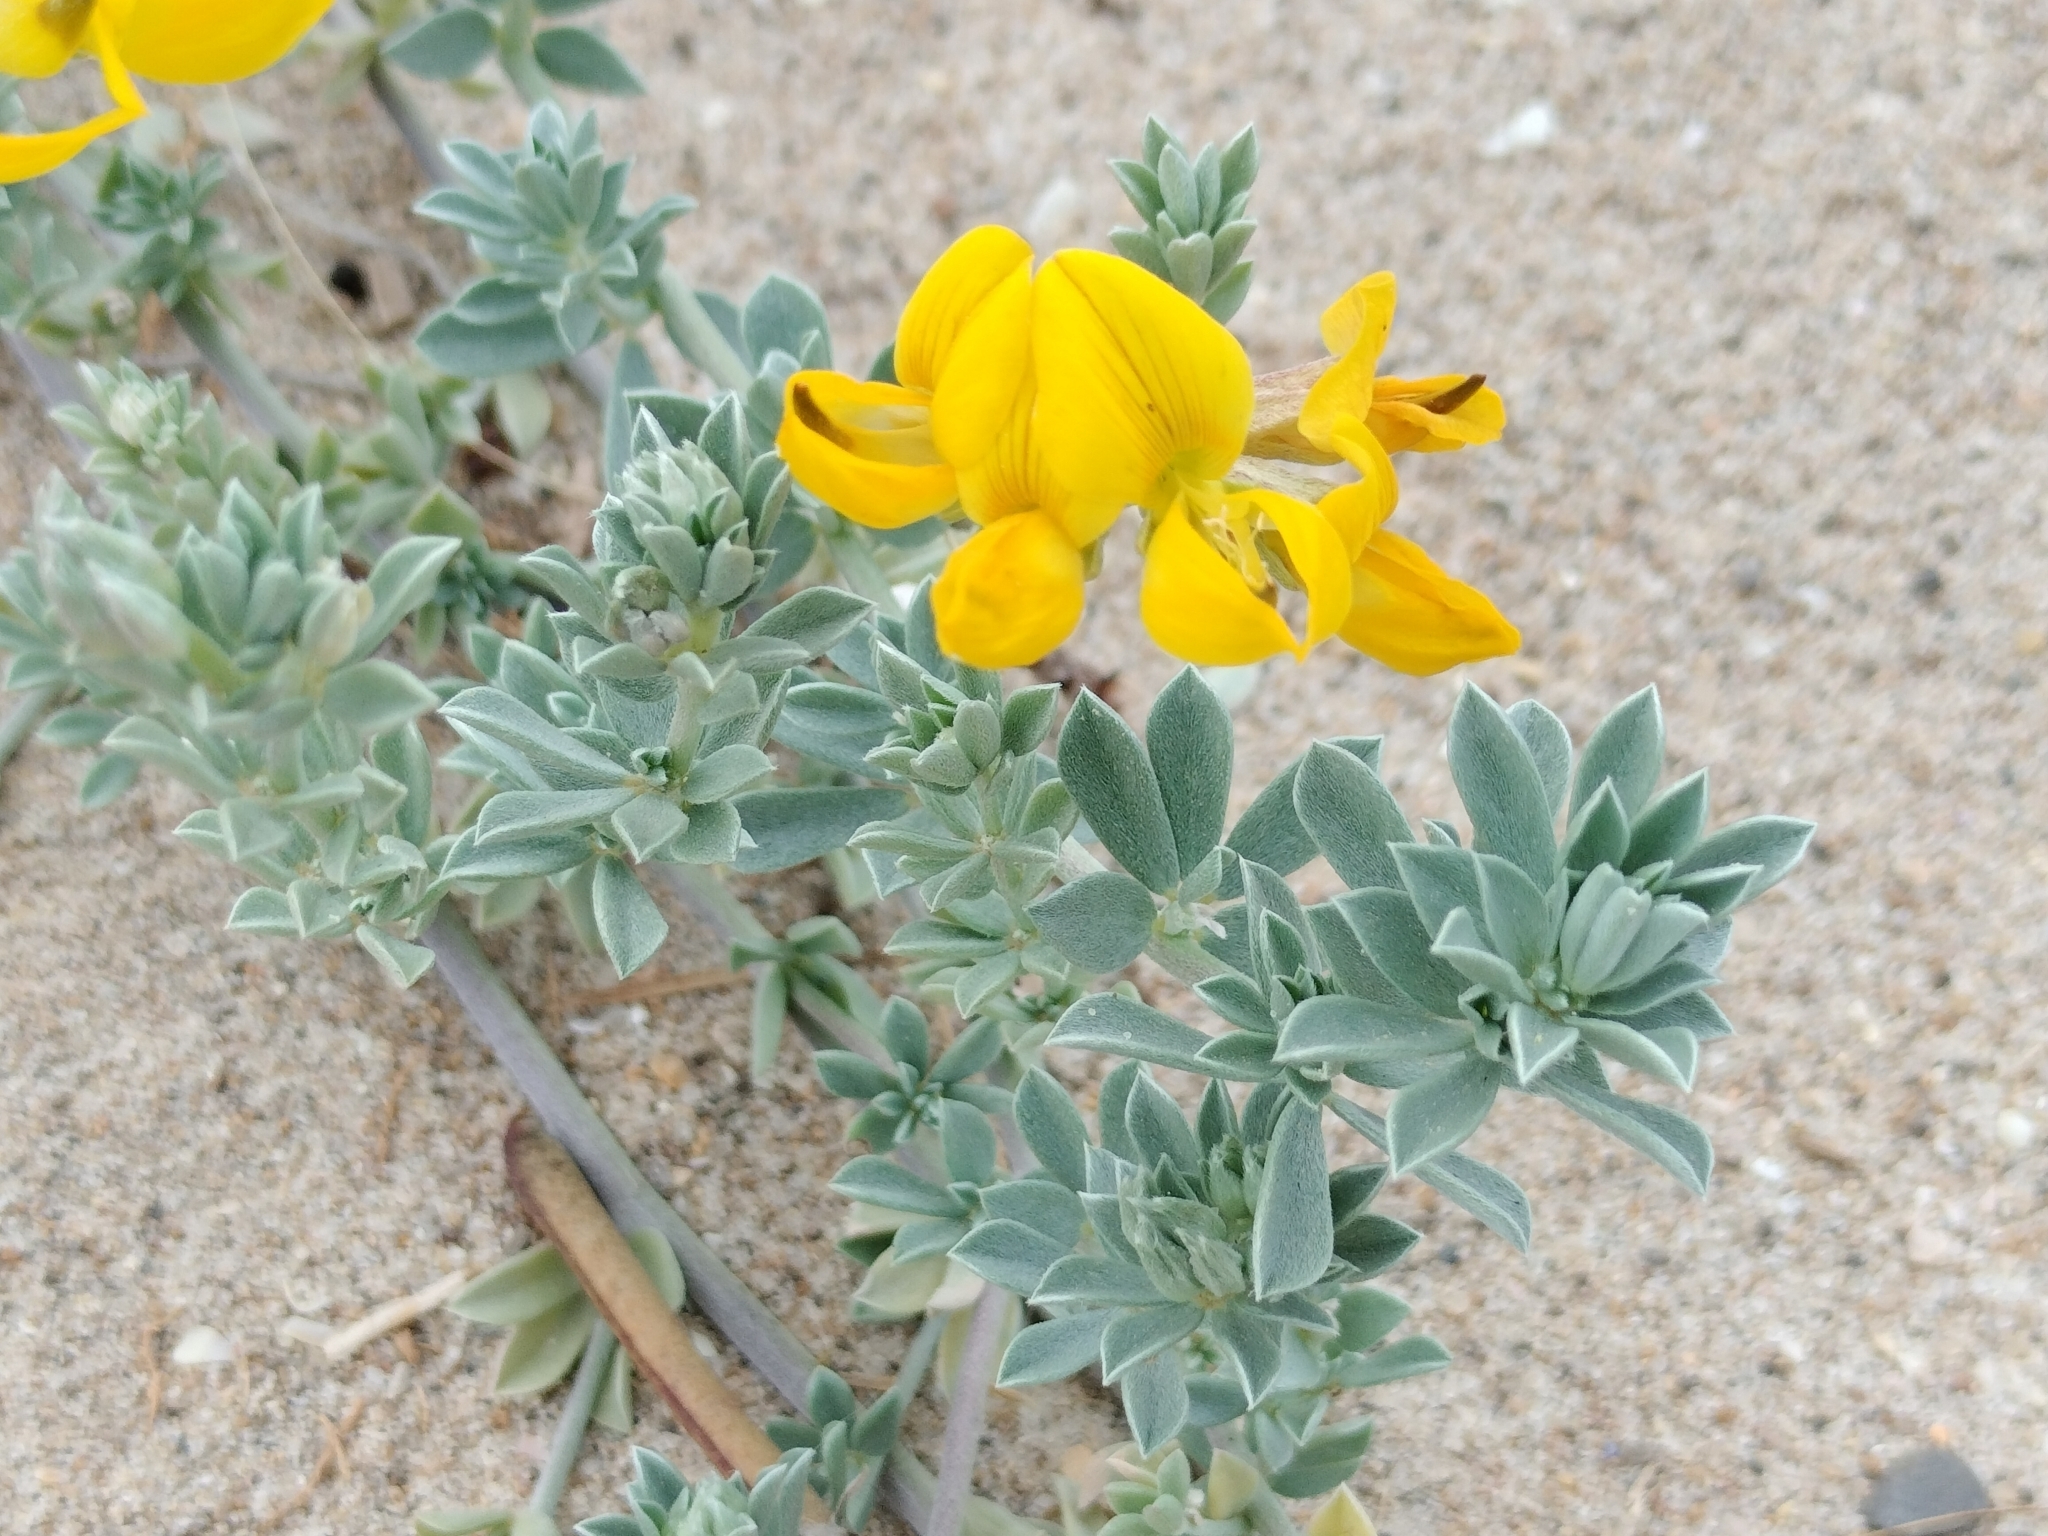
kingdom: Plantae
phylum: Tracheophyta
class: Magnoliopsida
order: Fabales
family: Fabaceae
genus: Lotus
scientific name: Lotus creticus
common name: Cretan bird's-foot trefoil
